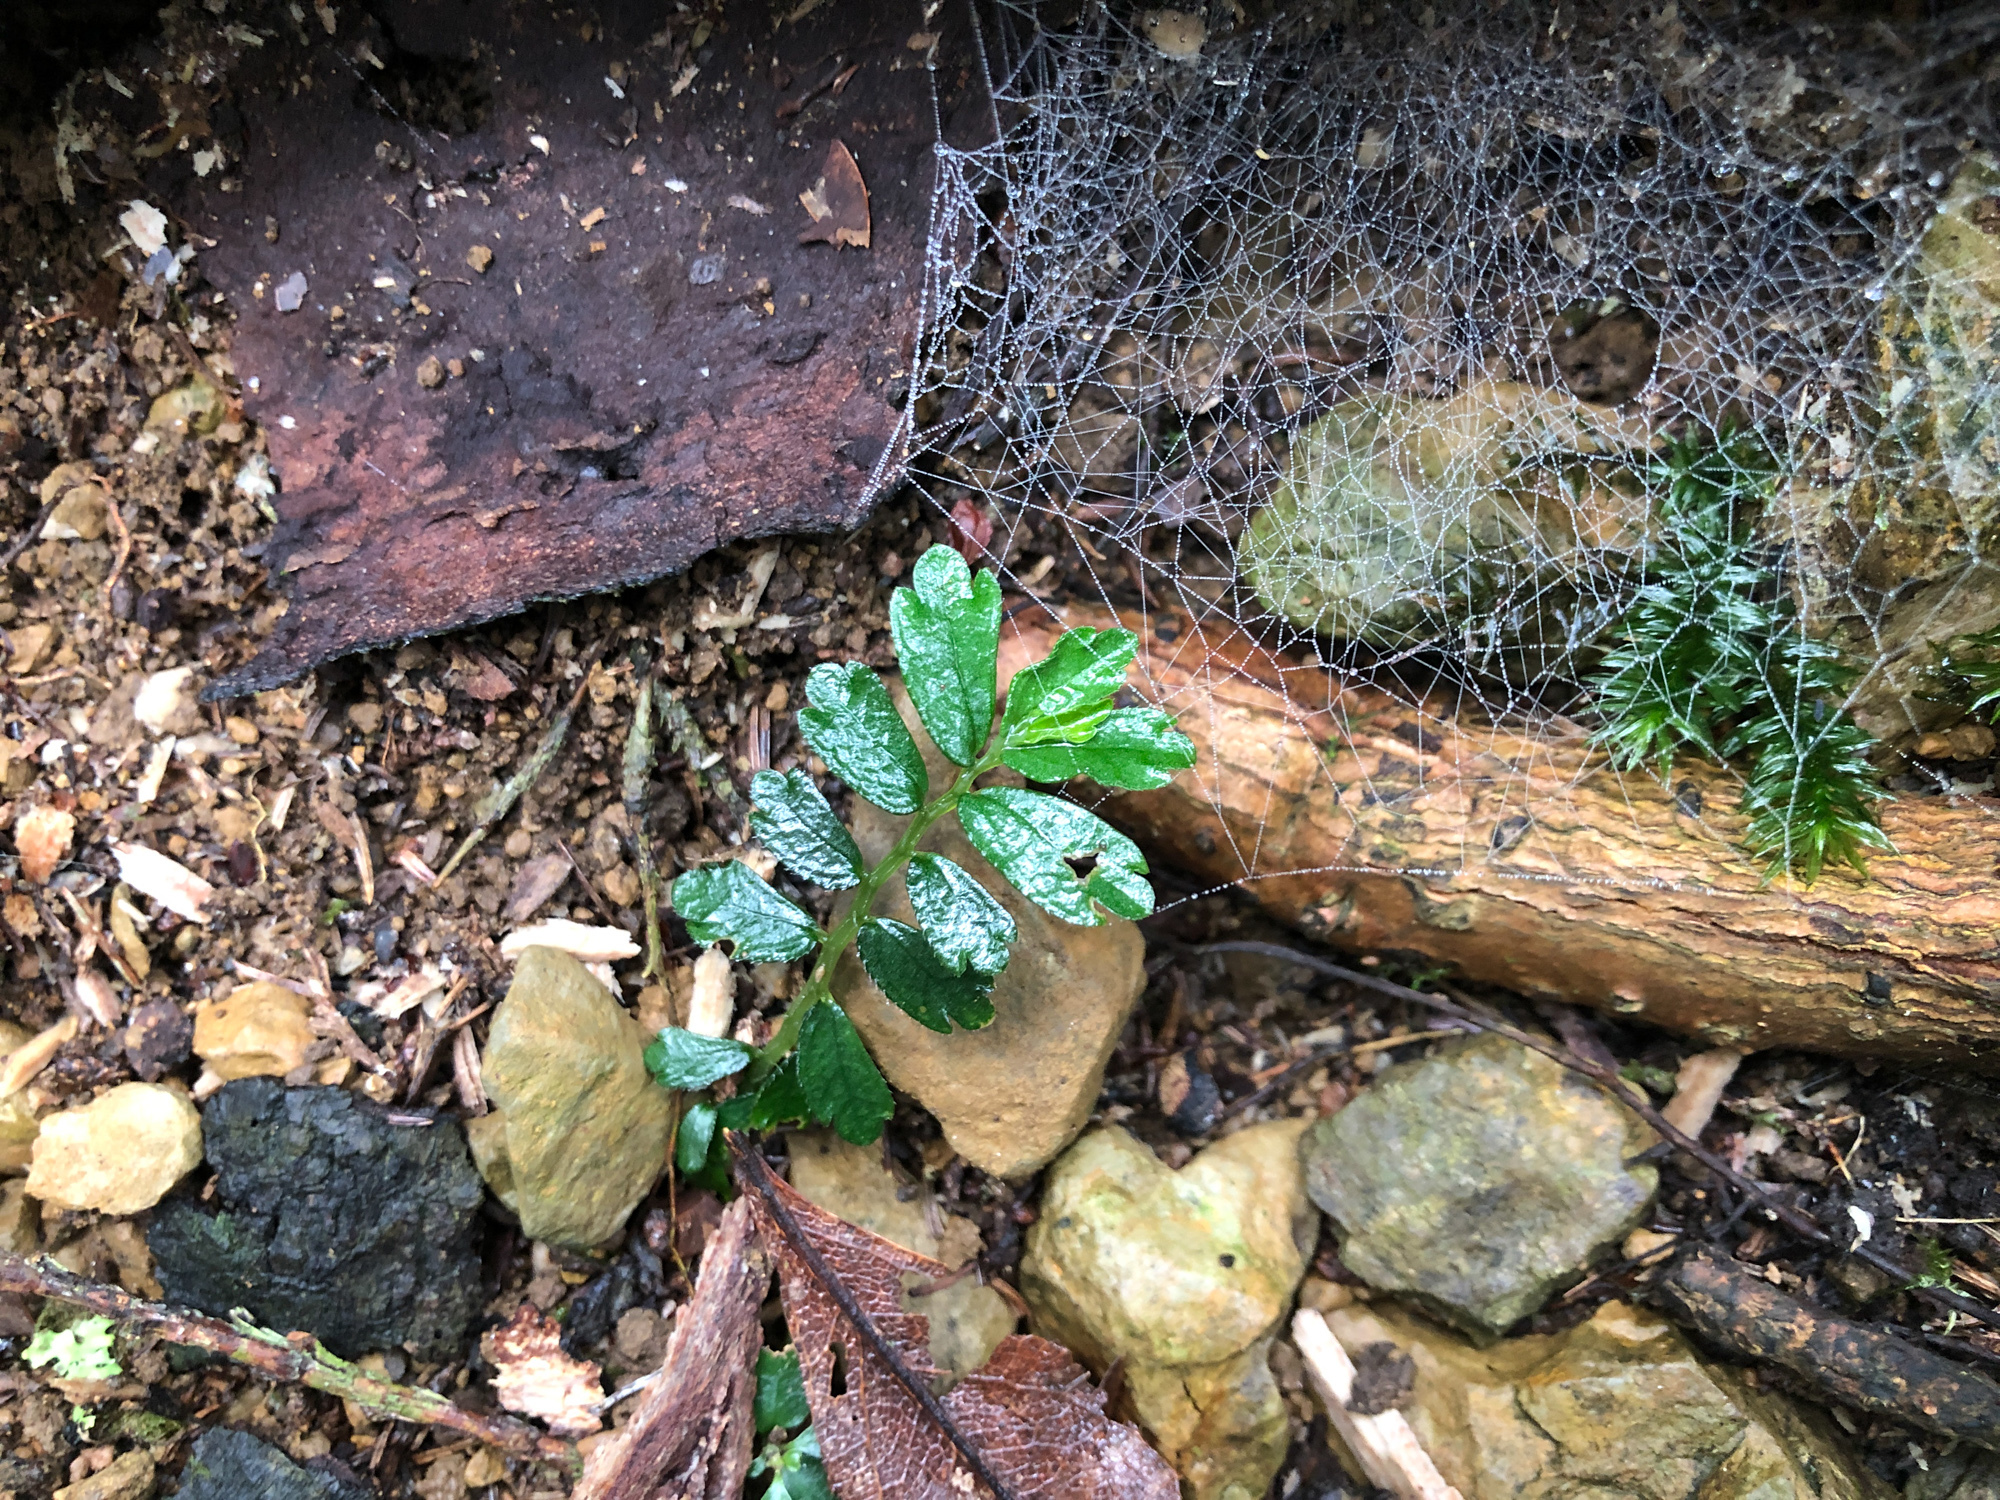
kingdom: Plantae
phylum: Tracheophyta
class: Magnoliopsida
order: Rosales
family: Urticaceae
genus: Elatostema
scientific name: Elatostema obtusum
